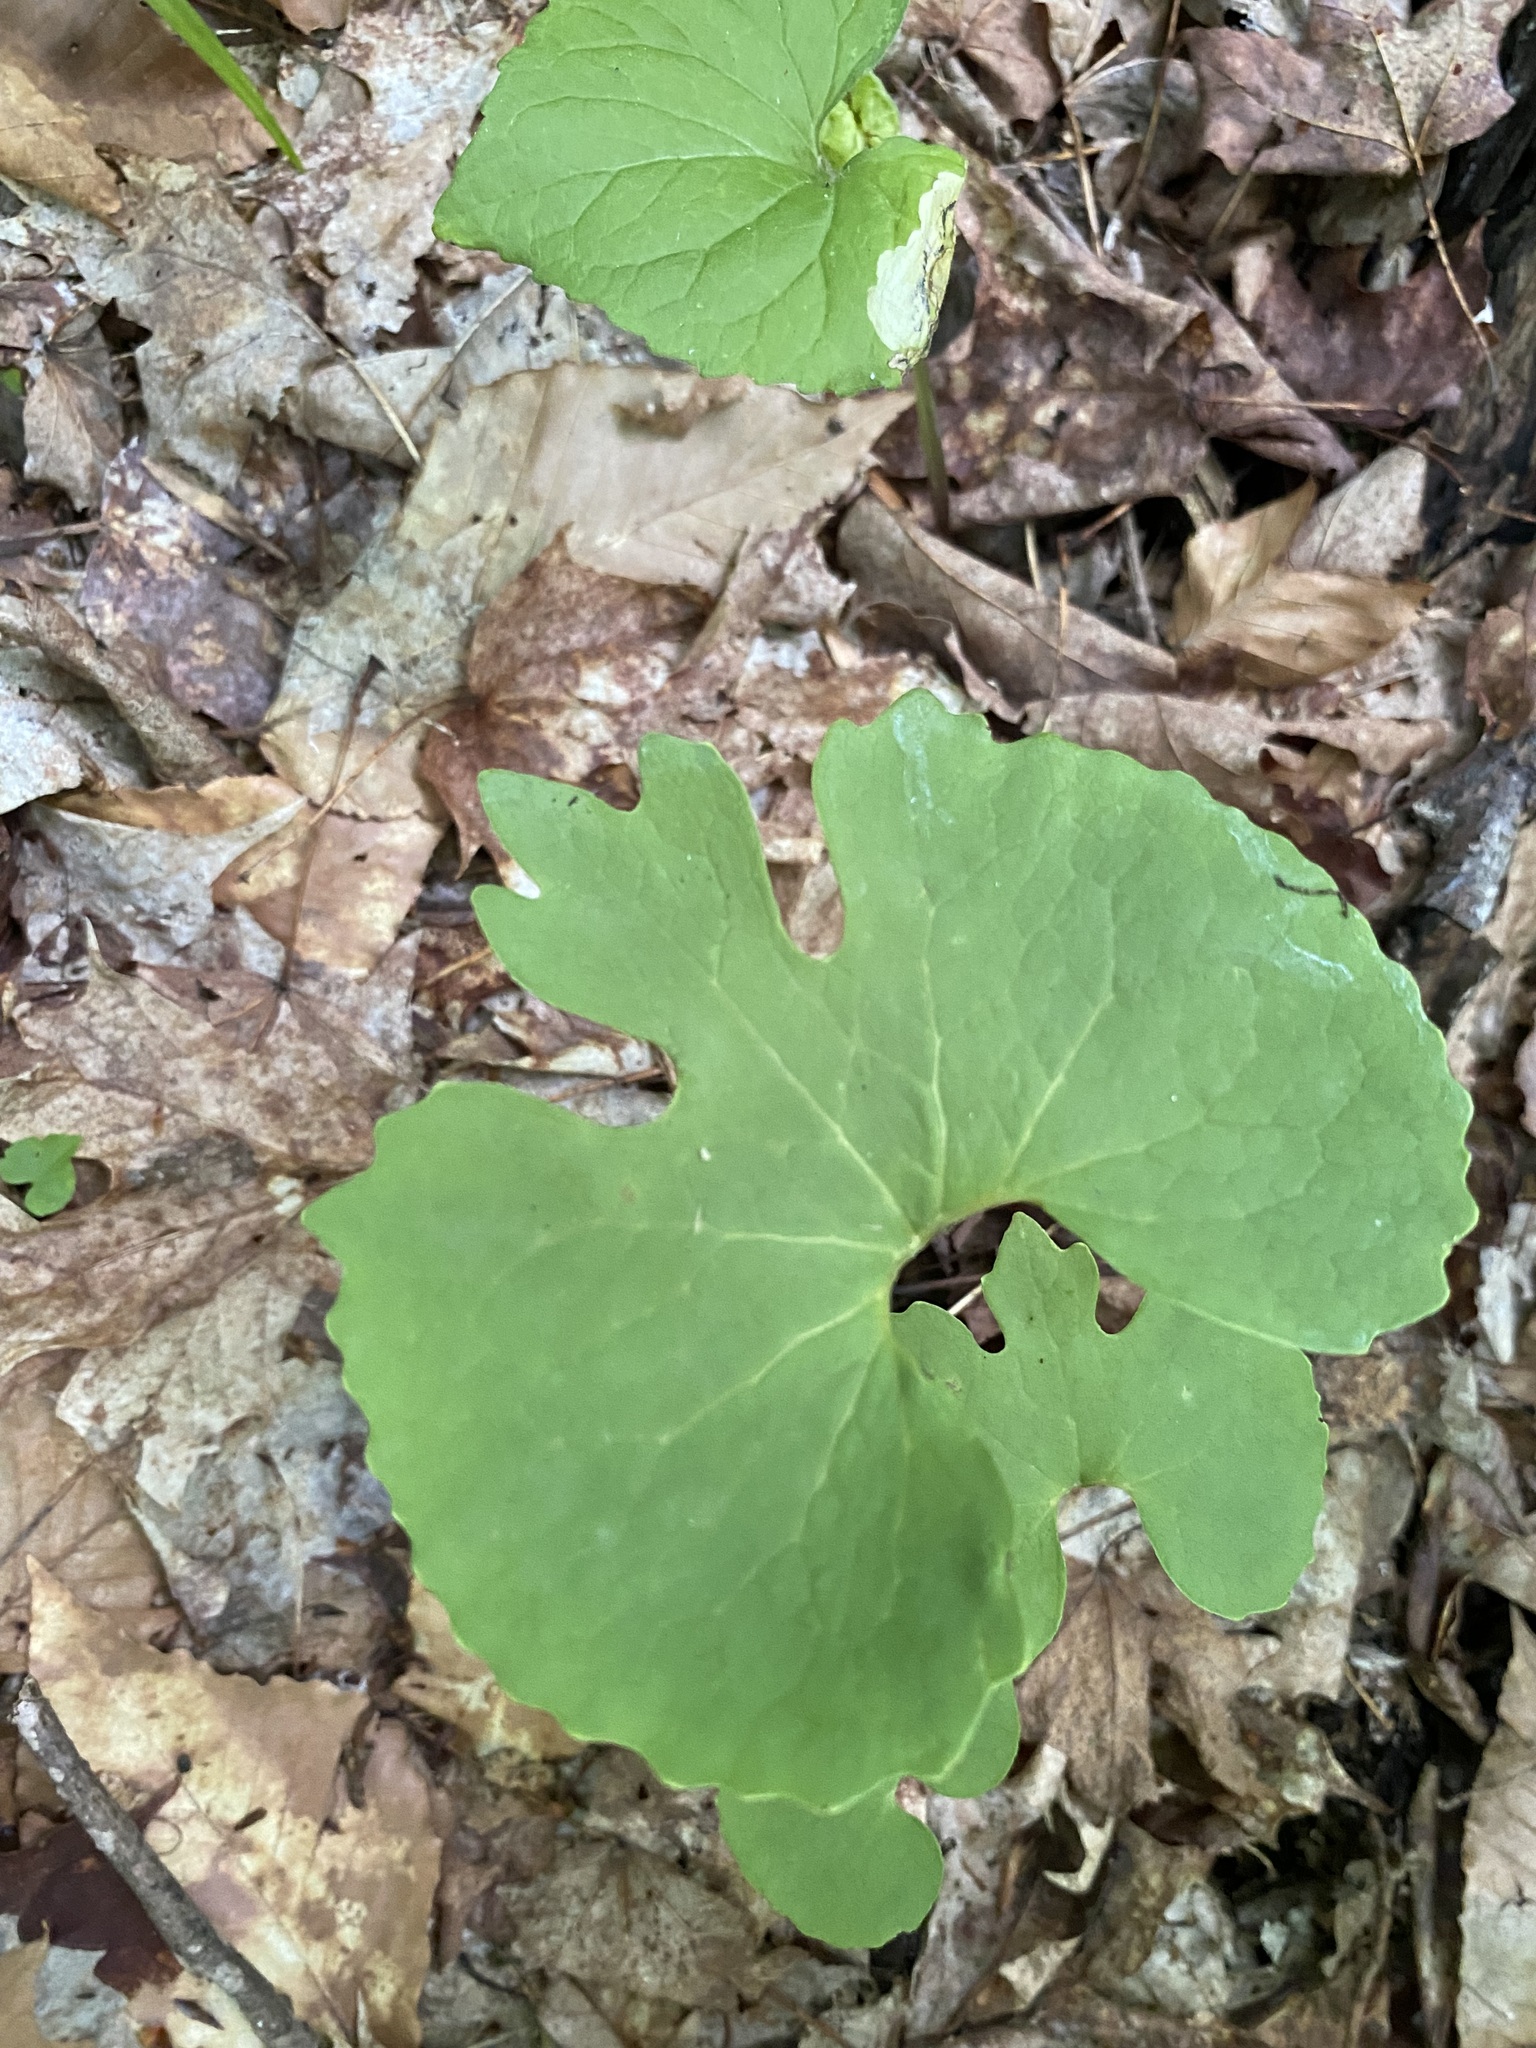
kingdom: Plantae
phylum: Tracheophyta
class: Magnoliopsida
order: Ranunculales
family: Papaveraceae
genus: Sanguinaria
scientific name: Sanguinaria canadensis
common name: Bloodroot
